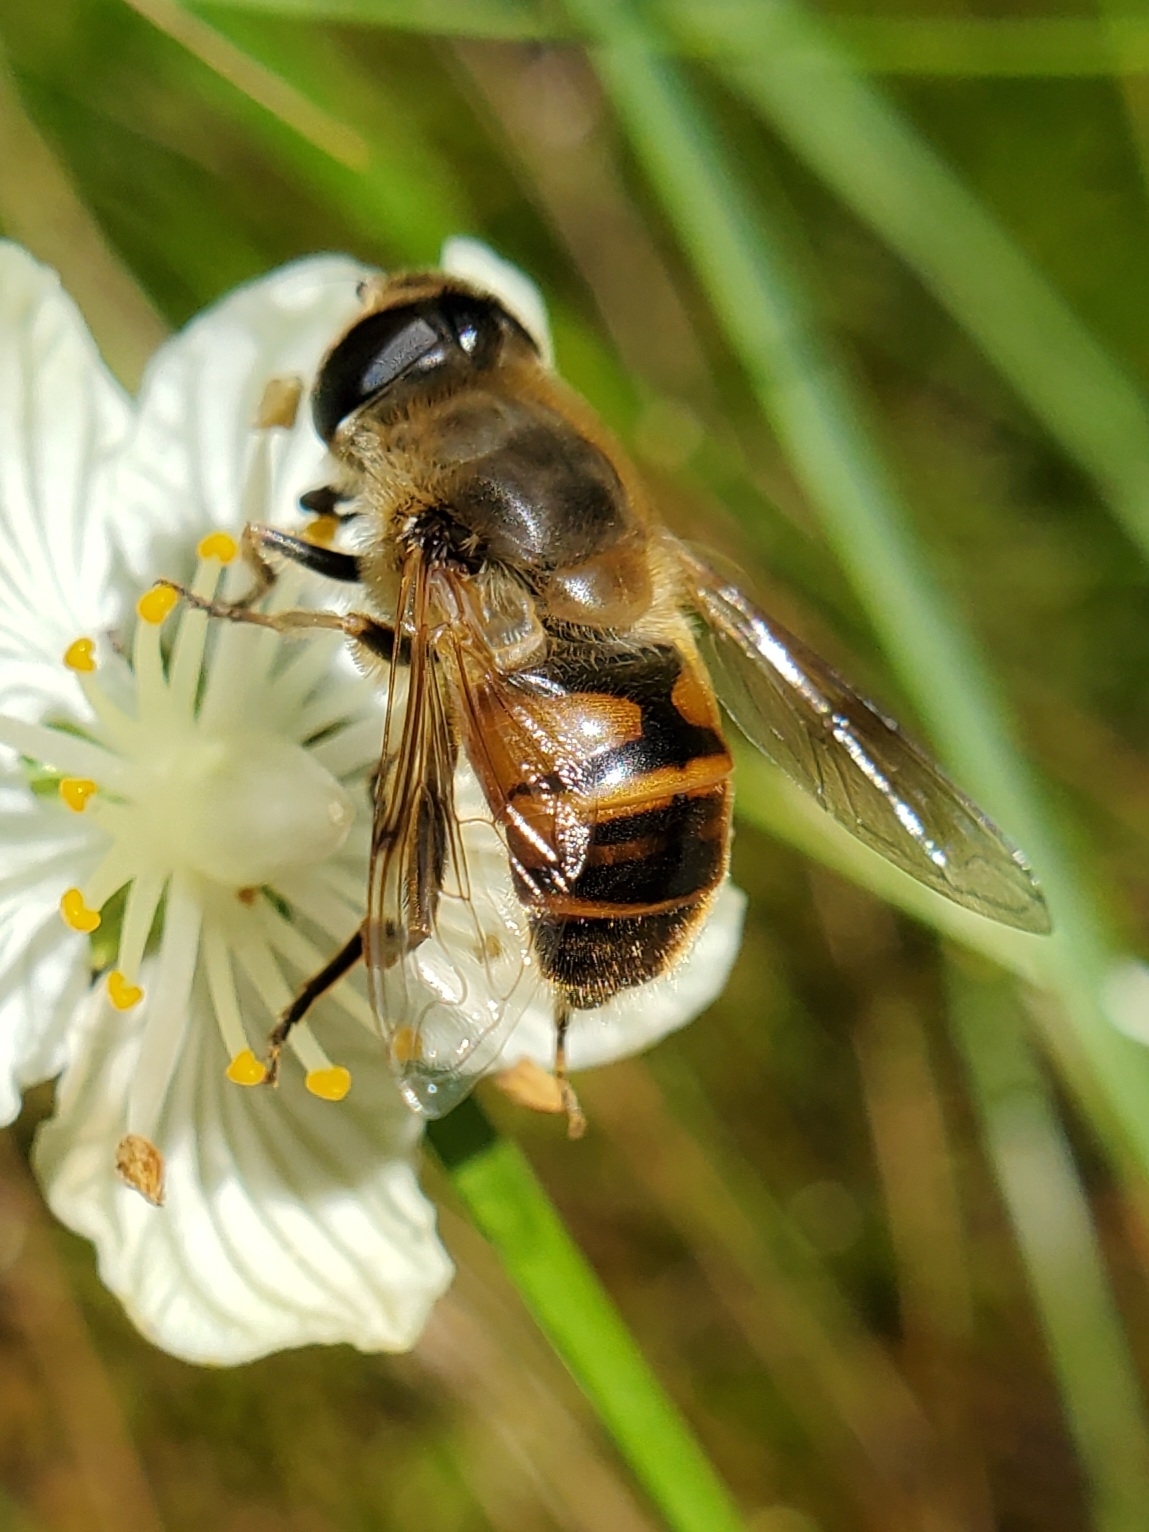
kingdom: Animalia
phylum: Arthropoda
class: Insecta
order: Diptera
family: Syrphidae
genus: Eristalis
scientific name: Eristalis tenax
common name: Drone fly
